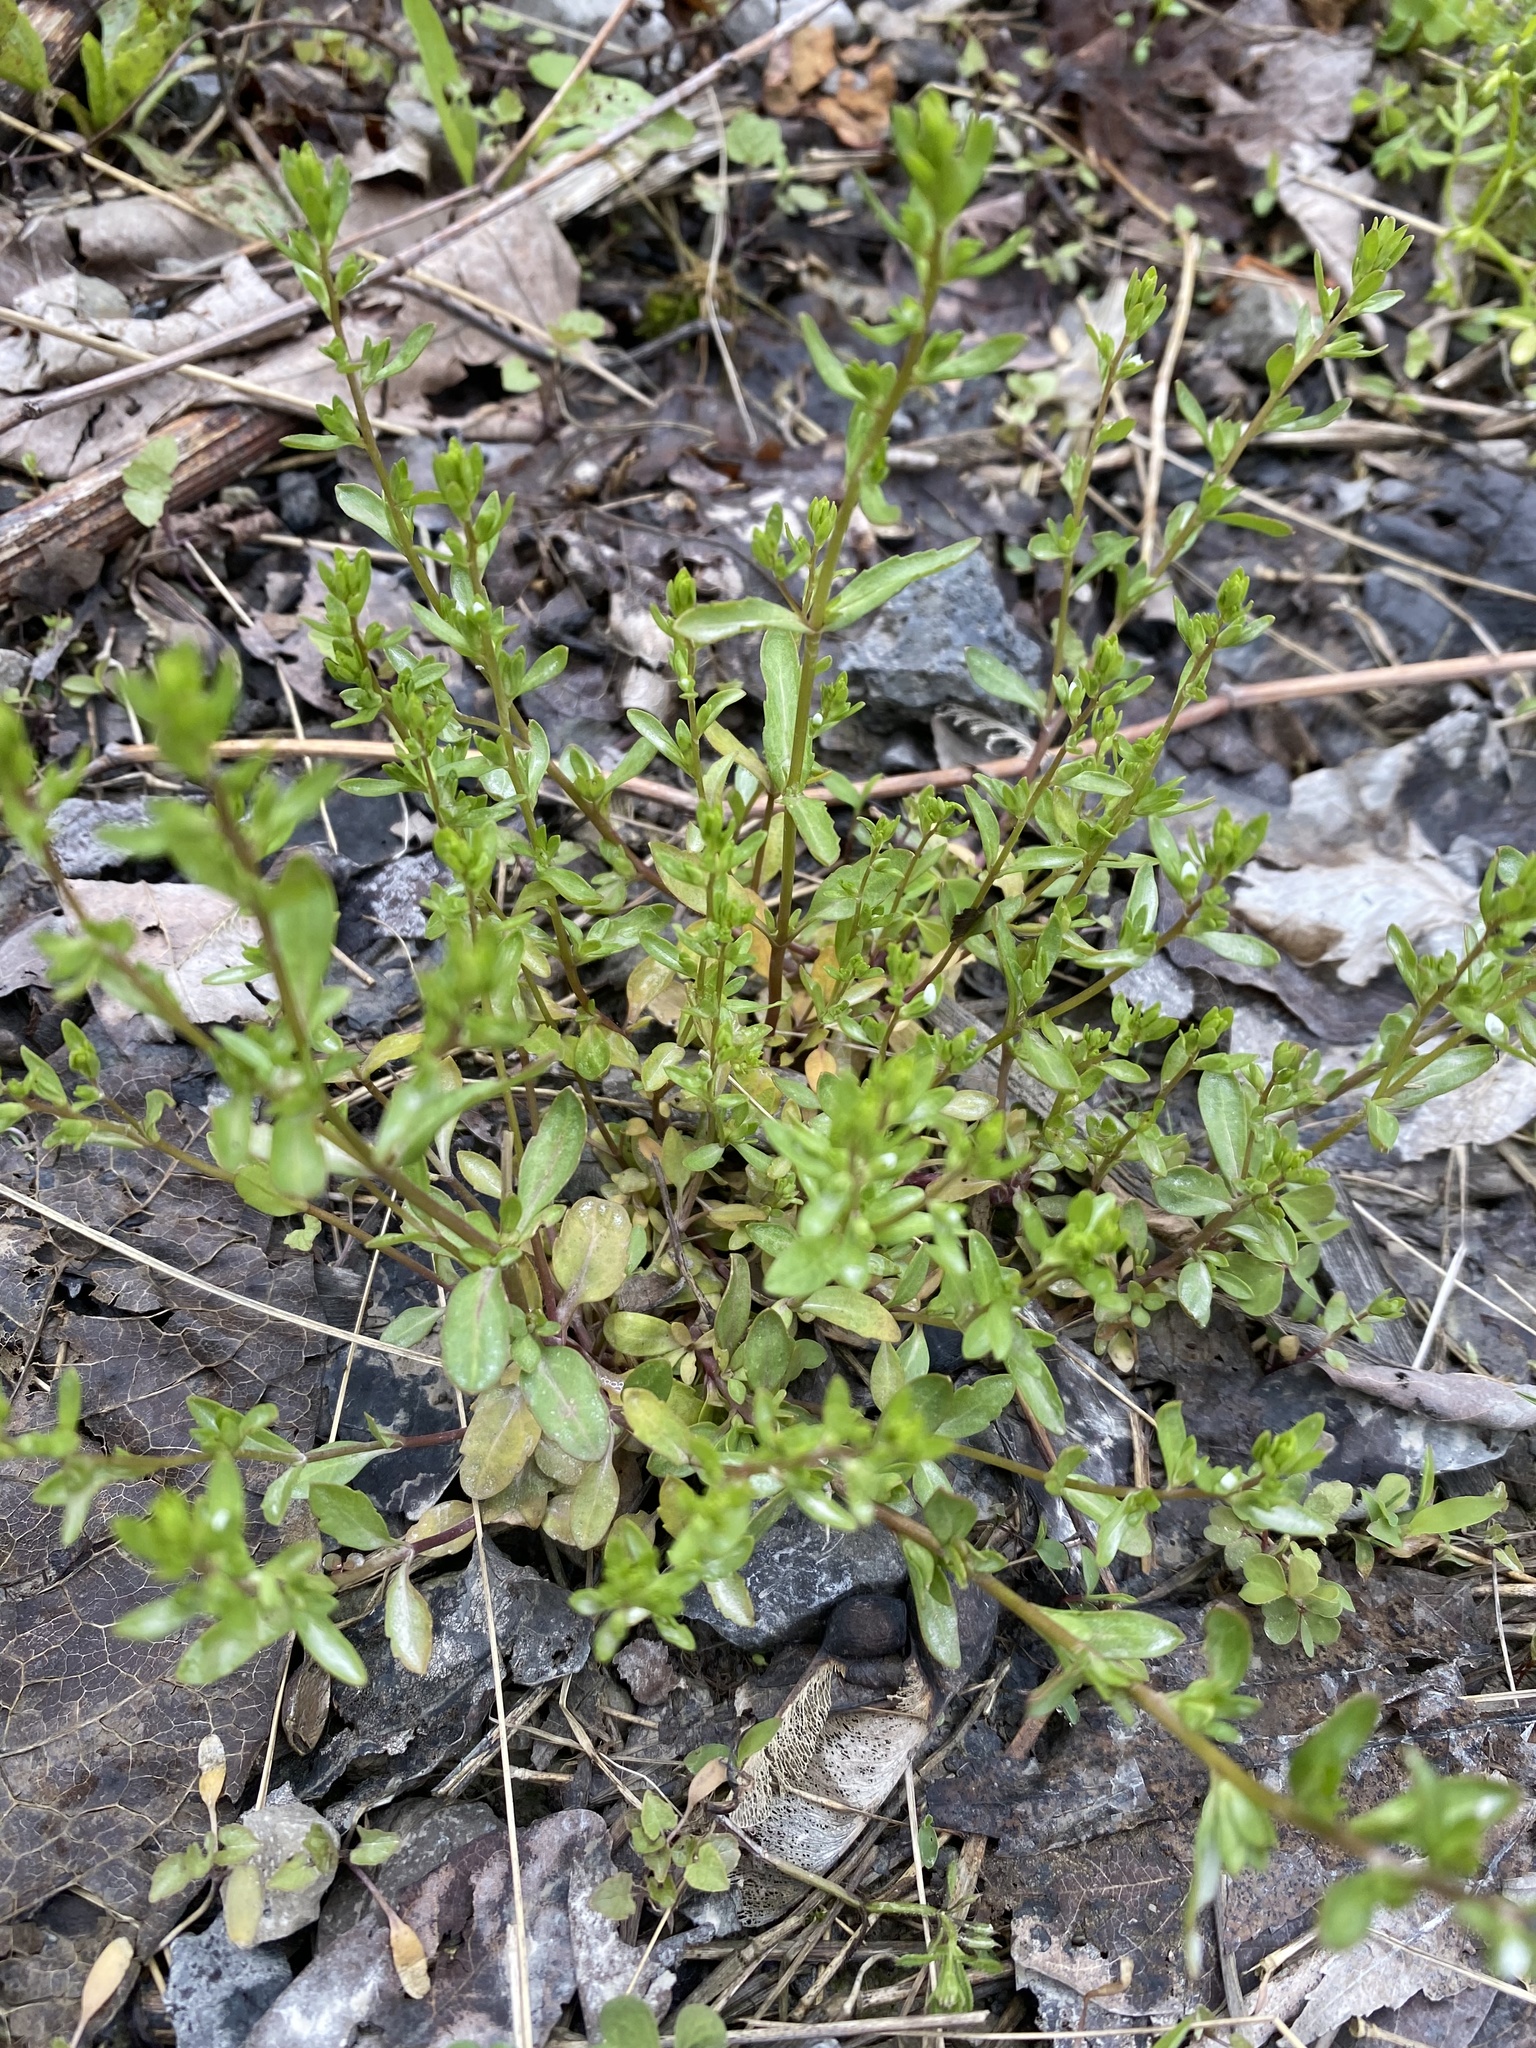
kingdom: Plantae
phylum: Tracheophyta
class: Magnoliopsida
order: Lamiales
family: Plantaginaceae
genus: Veronica
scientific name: Veronica peregrina
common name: Neckweed
